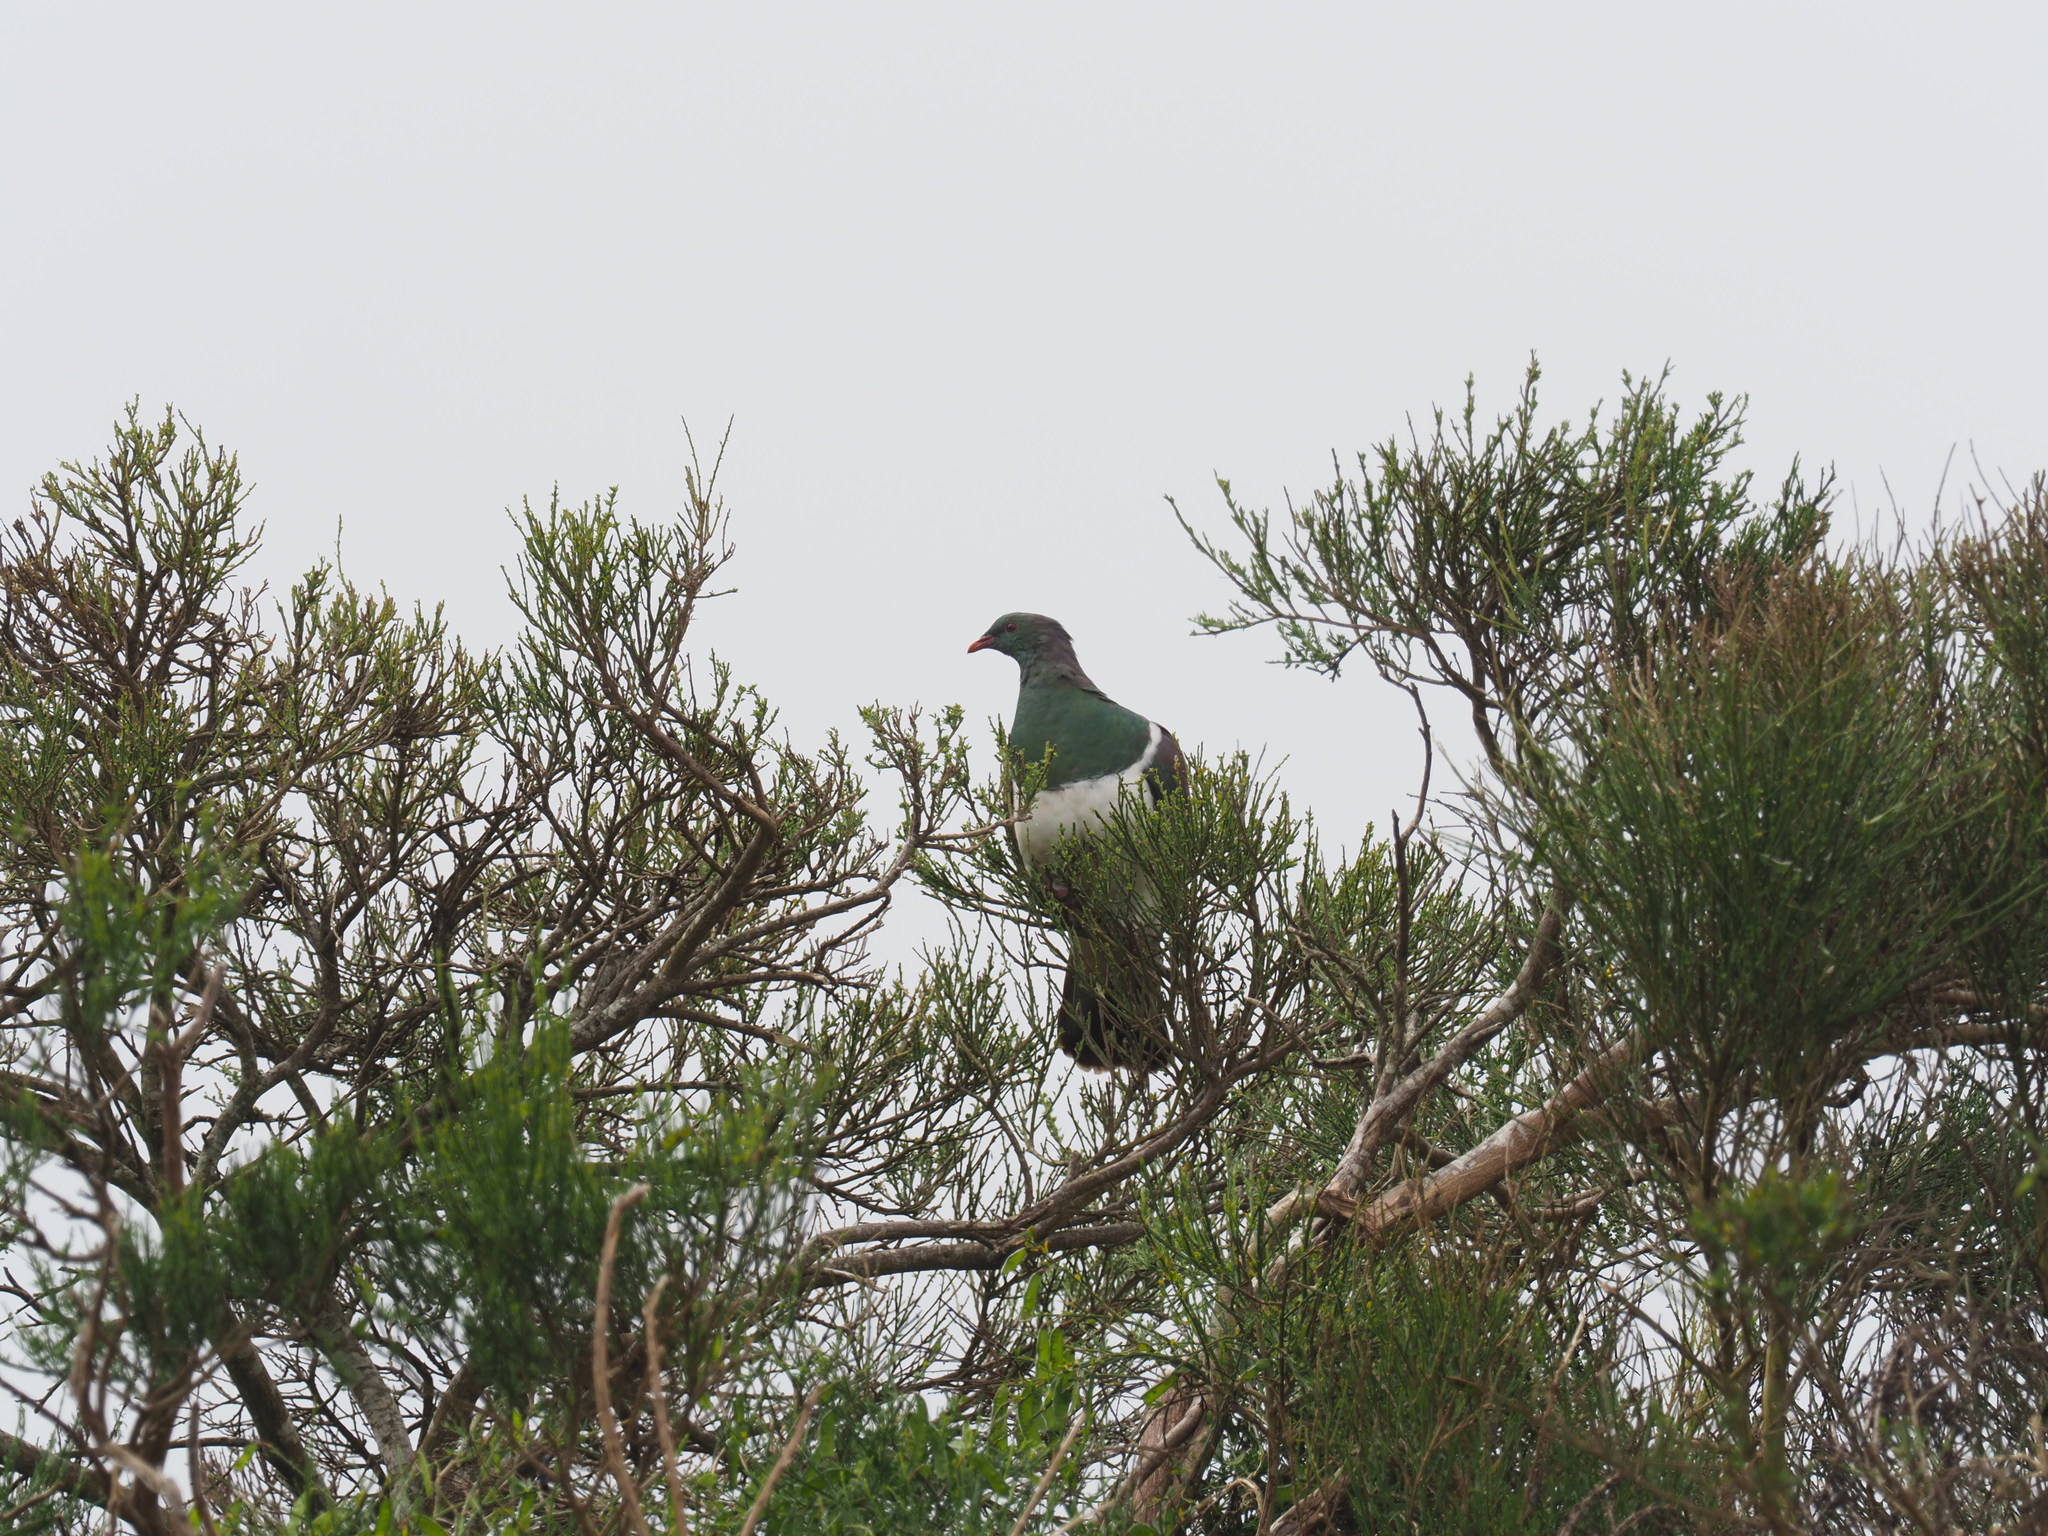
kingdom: Animalia
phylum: Chordata
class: Aves
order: Columbiformes
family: Columbidae
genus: Hemiphaga
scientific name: Hemiphaga novaeseelandiae
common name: New zealand pigeon
